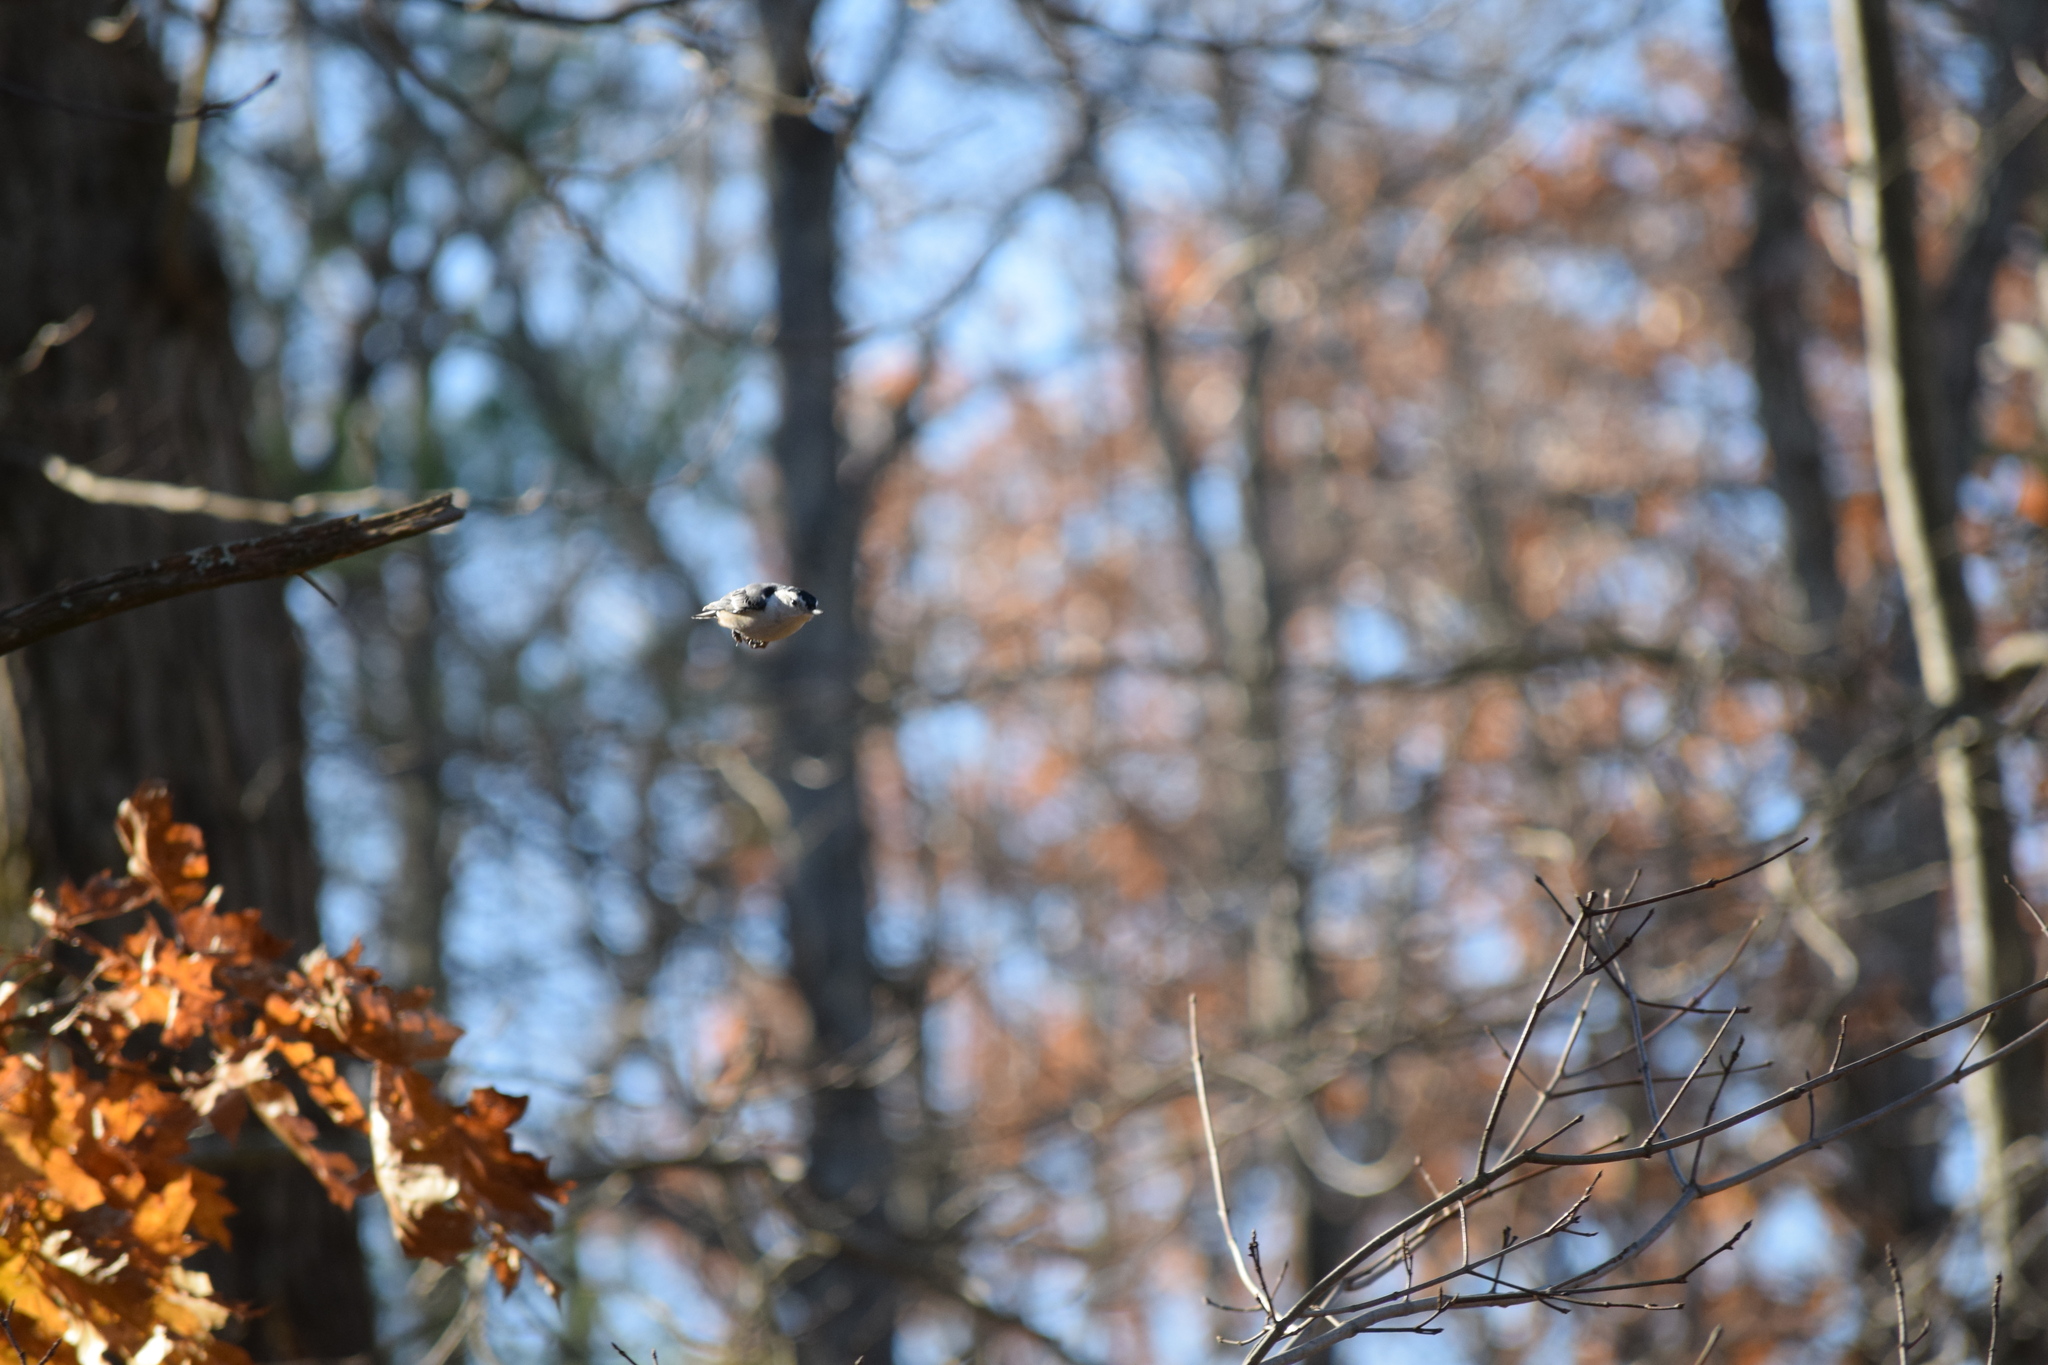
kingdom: Animalia
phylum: Chordata
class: Aves
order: Passeriformes
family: Sittidae
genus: Sitta
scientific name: Sitta carolinensis
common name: White-breasted nuthatch
